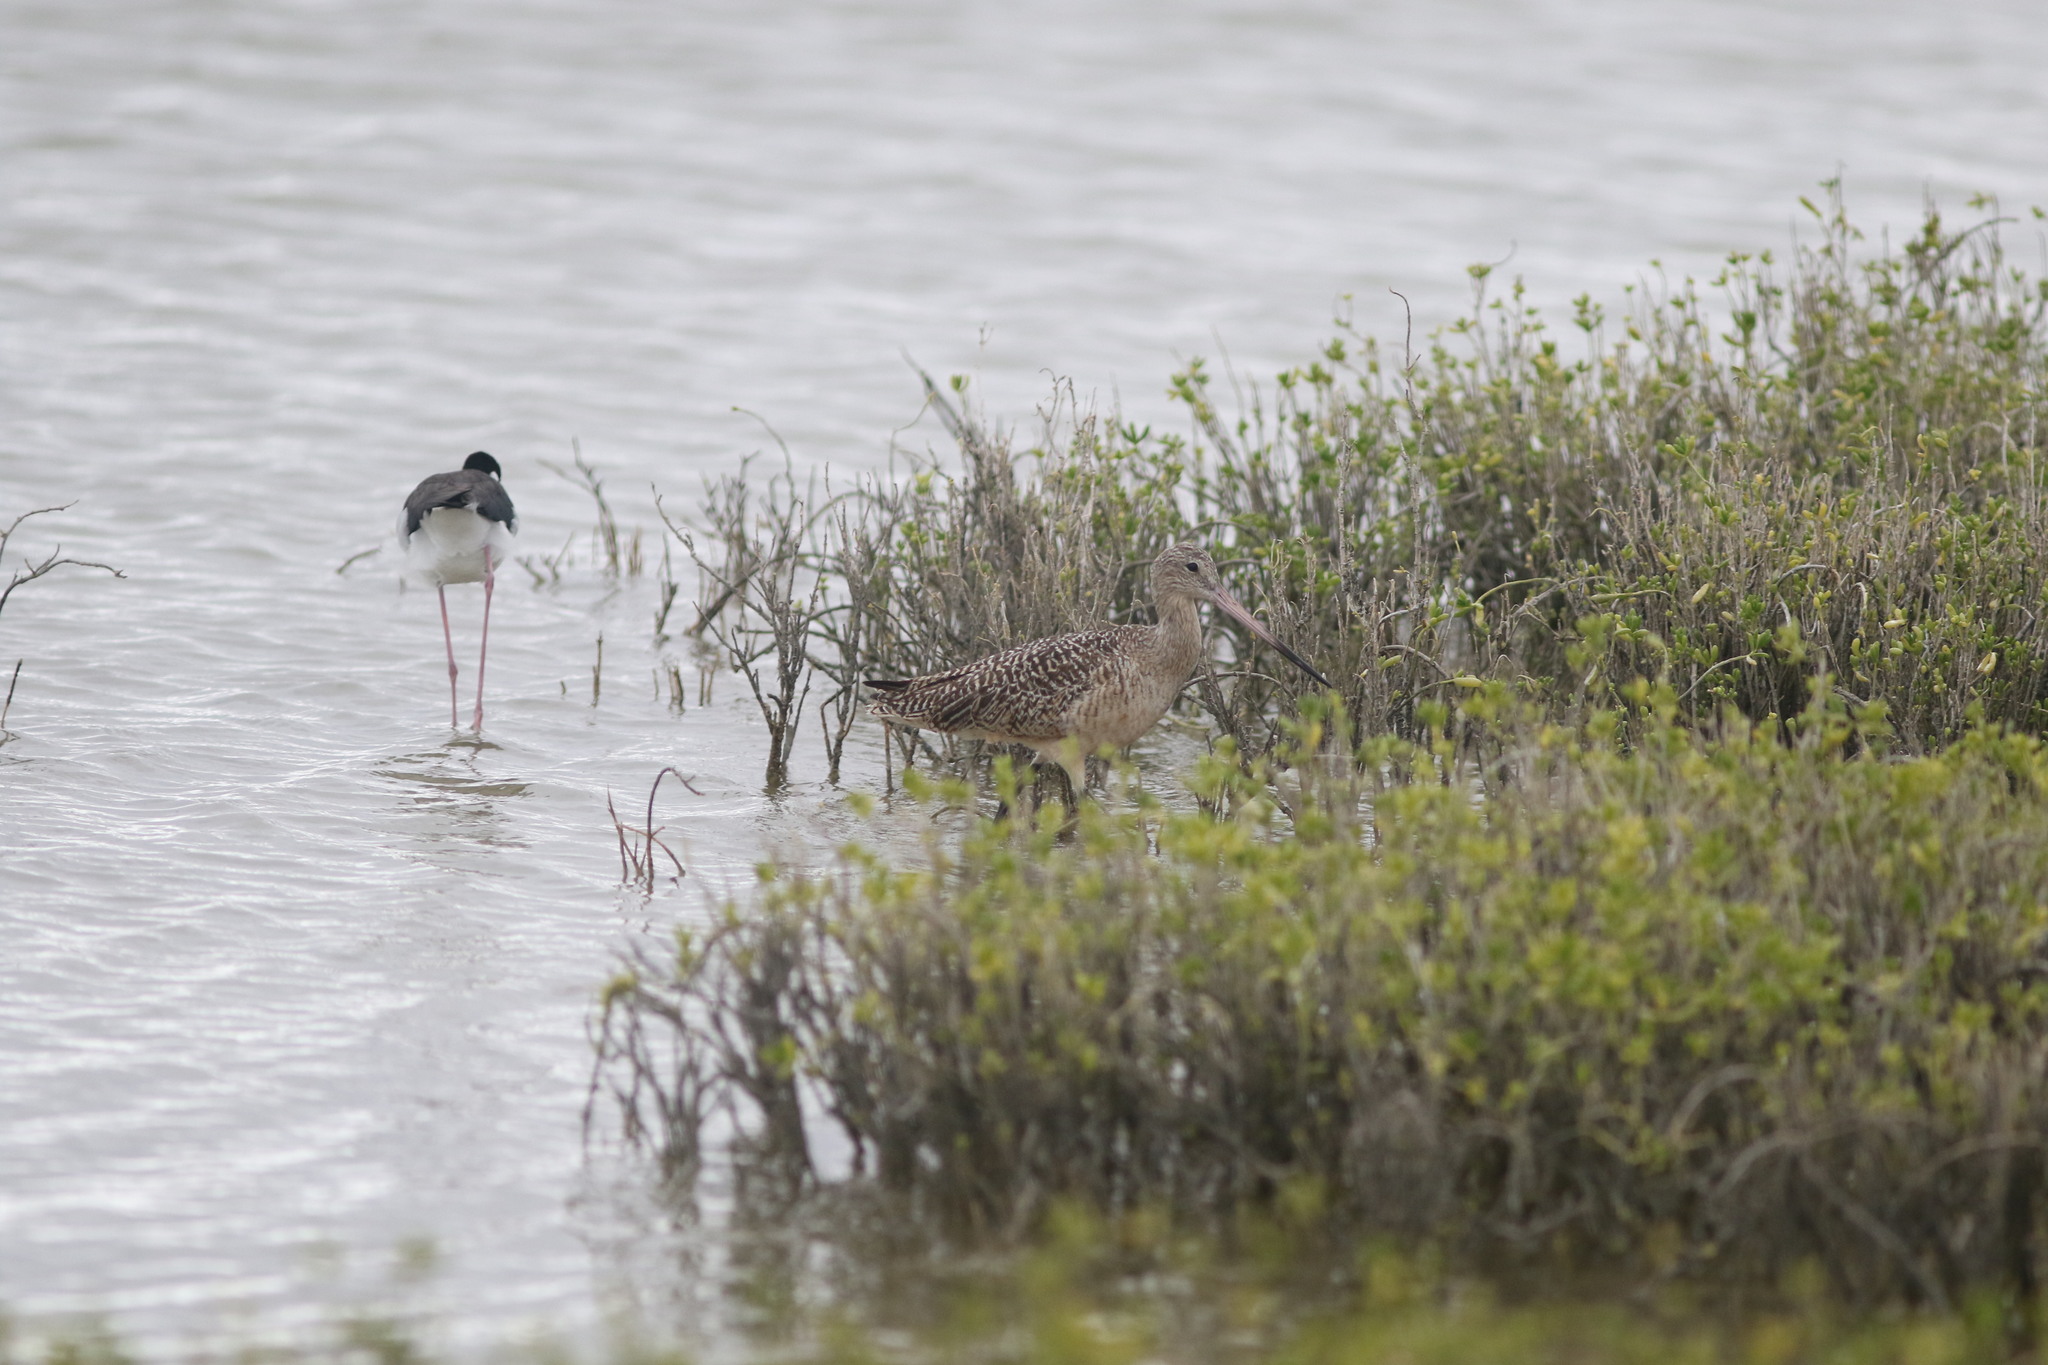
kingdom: Animalia
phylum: Chordata
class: Aves
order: Charadriiformes
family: Scolopacidae
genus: Limosa
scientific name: Limosa fedoa
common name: Marbled godwit
